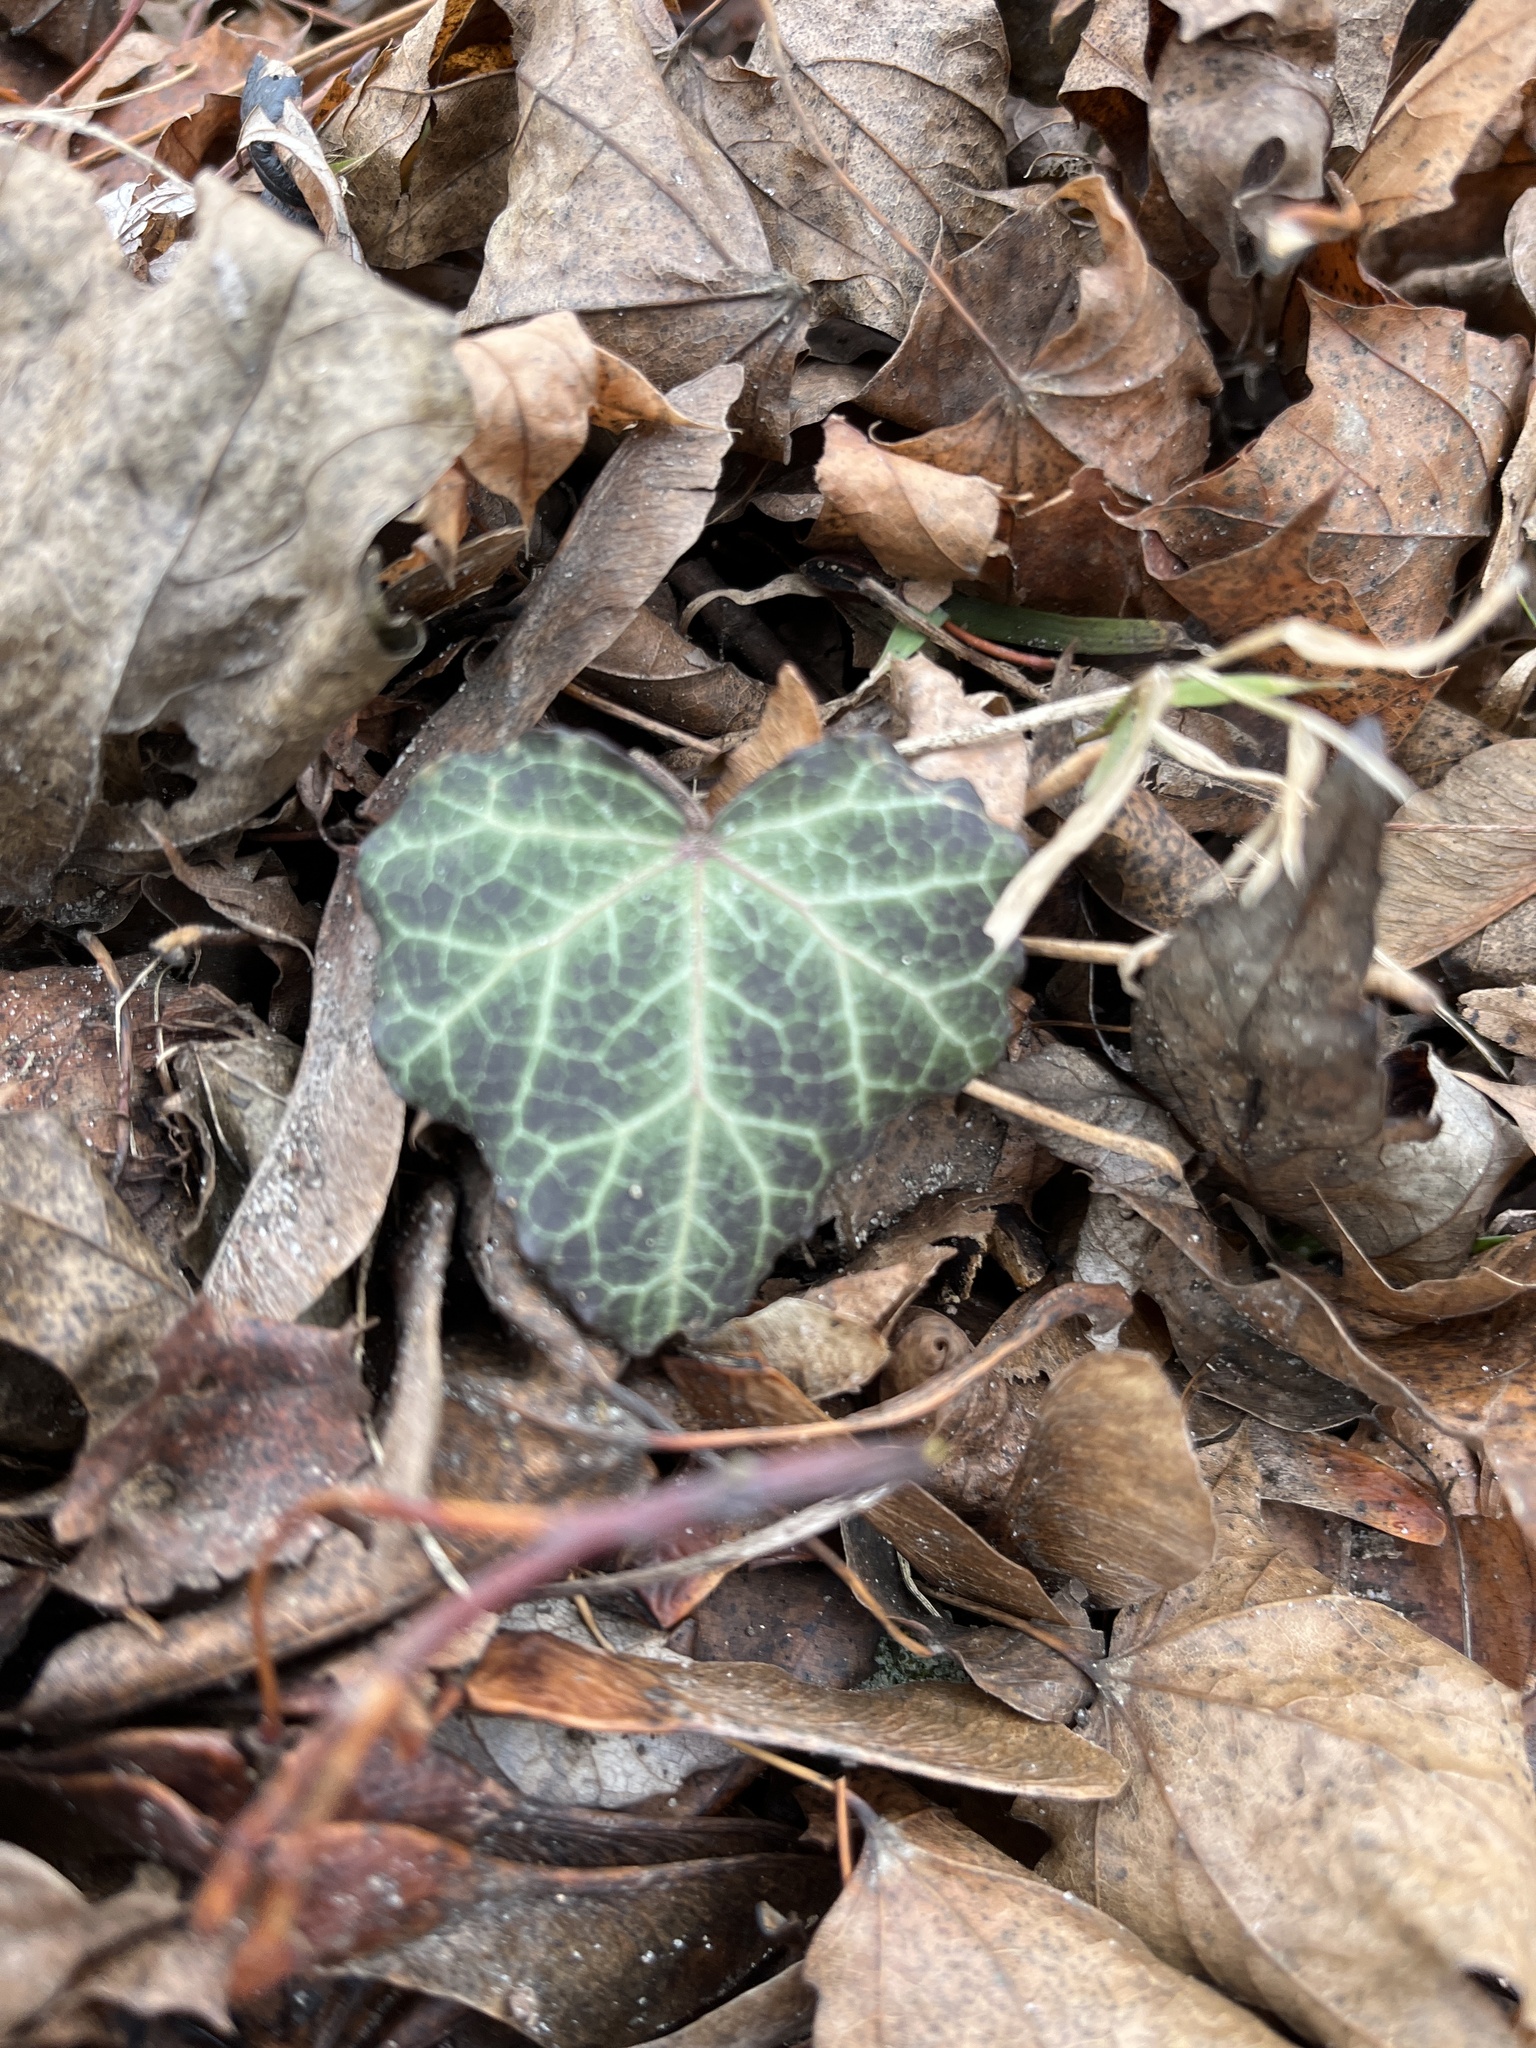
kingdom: Plantae
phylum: Tracheophyta
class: Magnoliopsida
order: Apiales
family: Araliaceae
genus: Hedera
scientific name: Hedera helix
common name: Ivy
